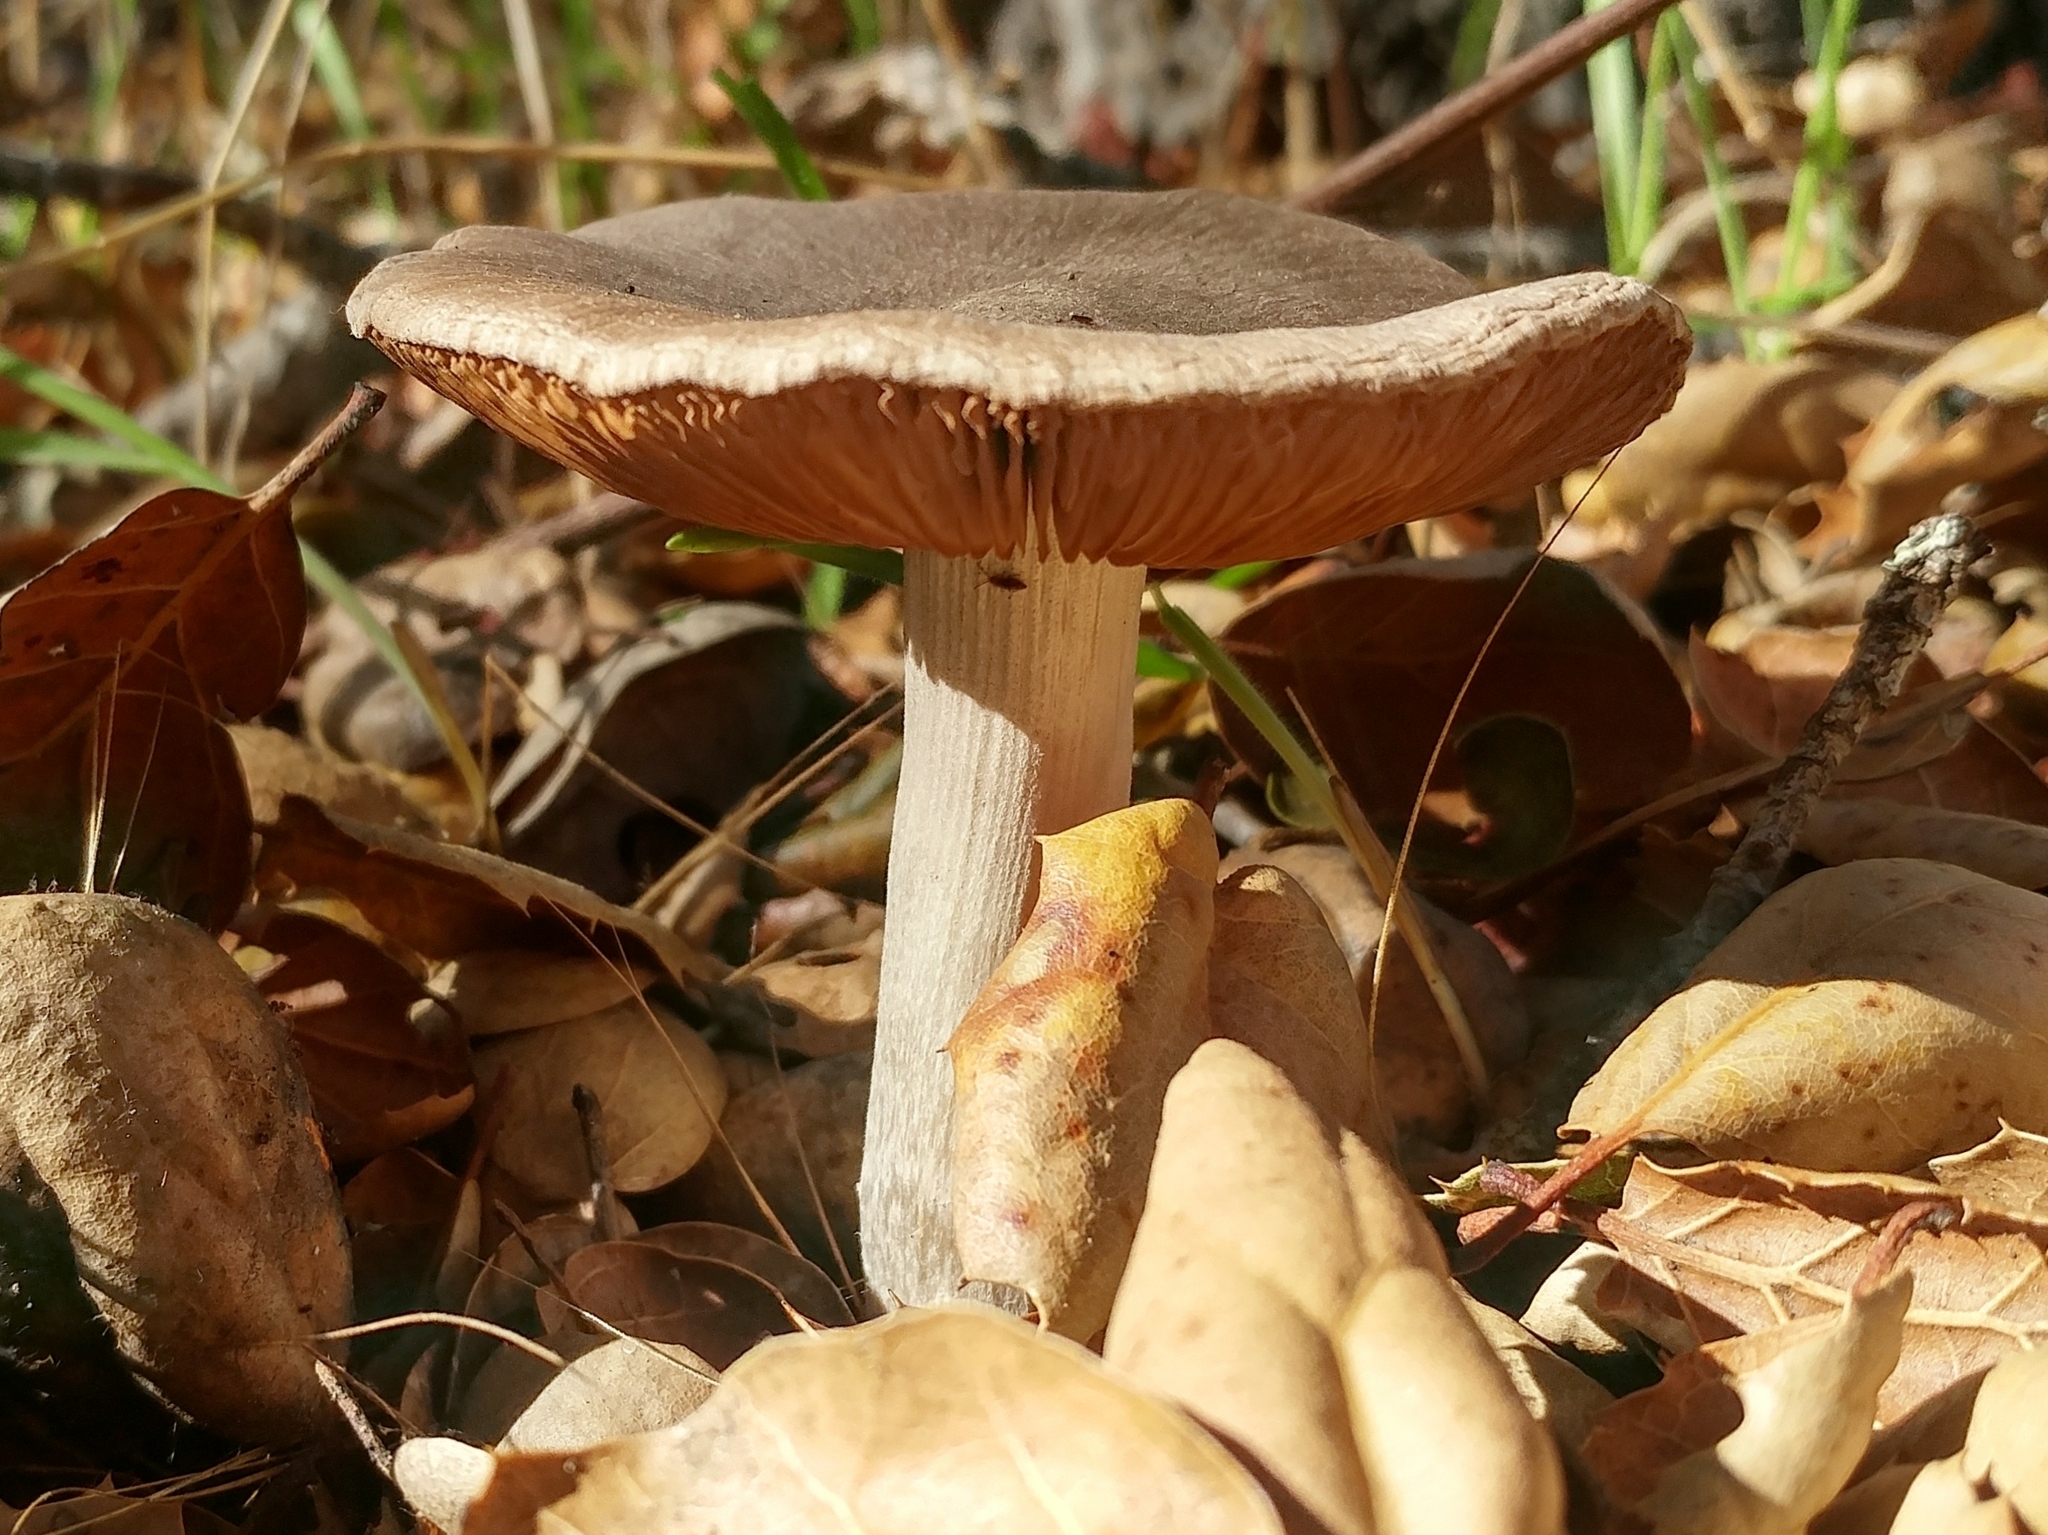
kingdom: Fungi
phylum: Basidiomycota
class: Agaricomycetes
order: Agaricales
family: Psathyrellaceae
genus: Psathyrella
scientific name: Psathyrella uliginicola
